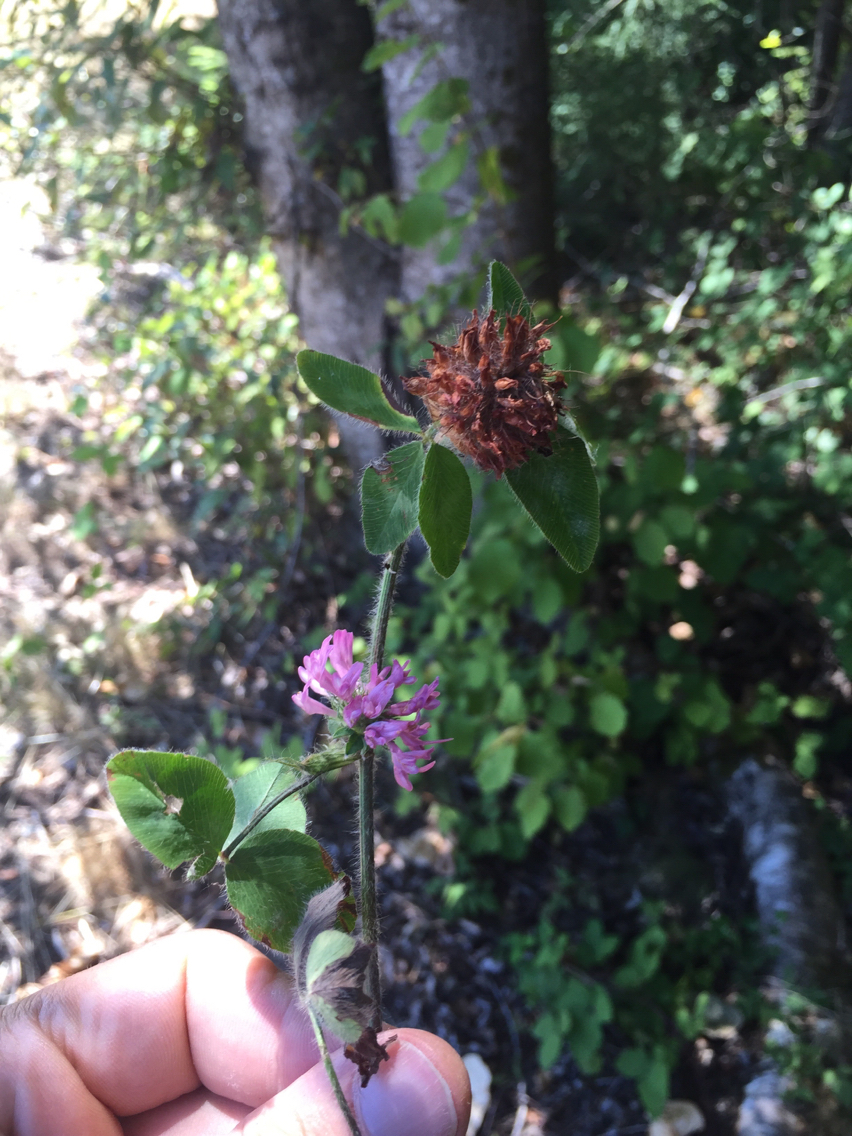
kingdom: Plantae
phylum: Tracheophyta
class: Magnoliopsida
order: Fabales
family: Fabaceae
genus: Trifolium
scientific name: Trifolium pratense
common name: Red clover
